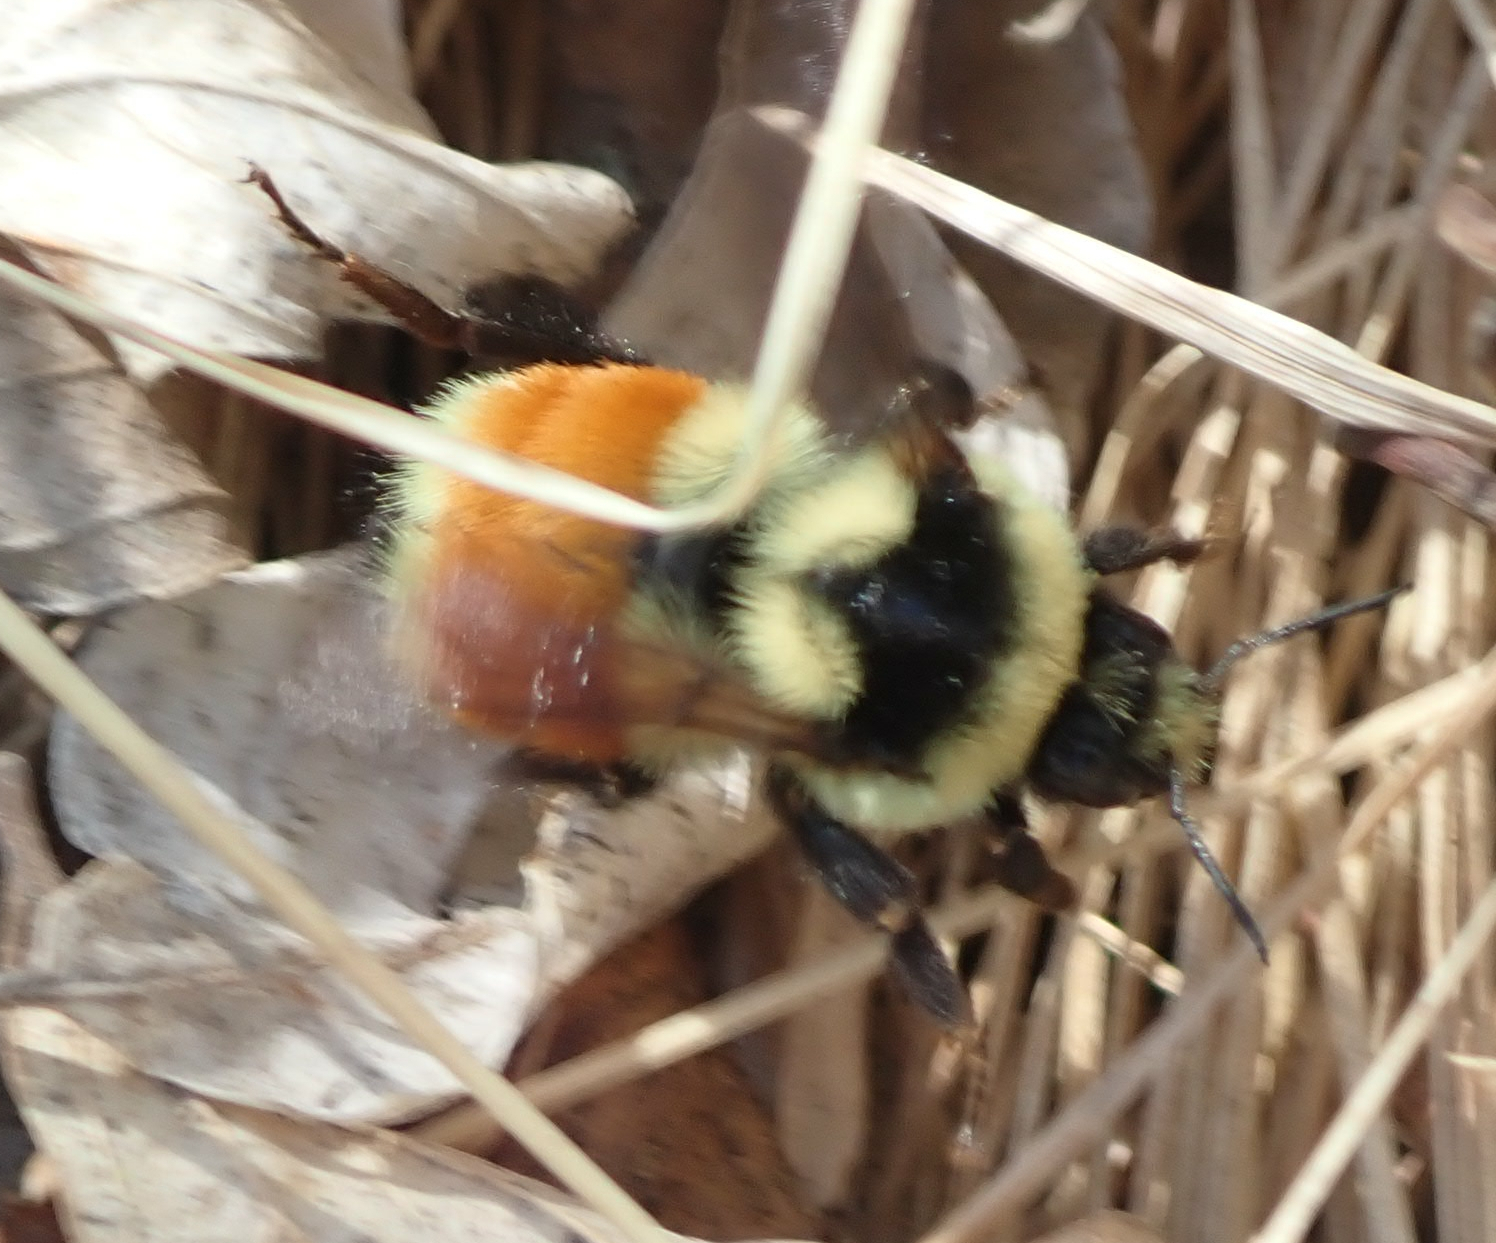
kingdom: Animalia
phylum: Arthropoda
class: Insecta
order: Hymenoptera
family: Apidae
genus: Bombus
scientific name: Bombus ternarius
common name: Tri-colored bumble bee
